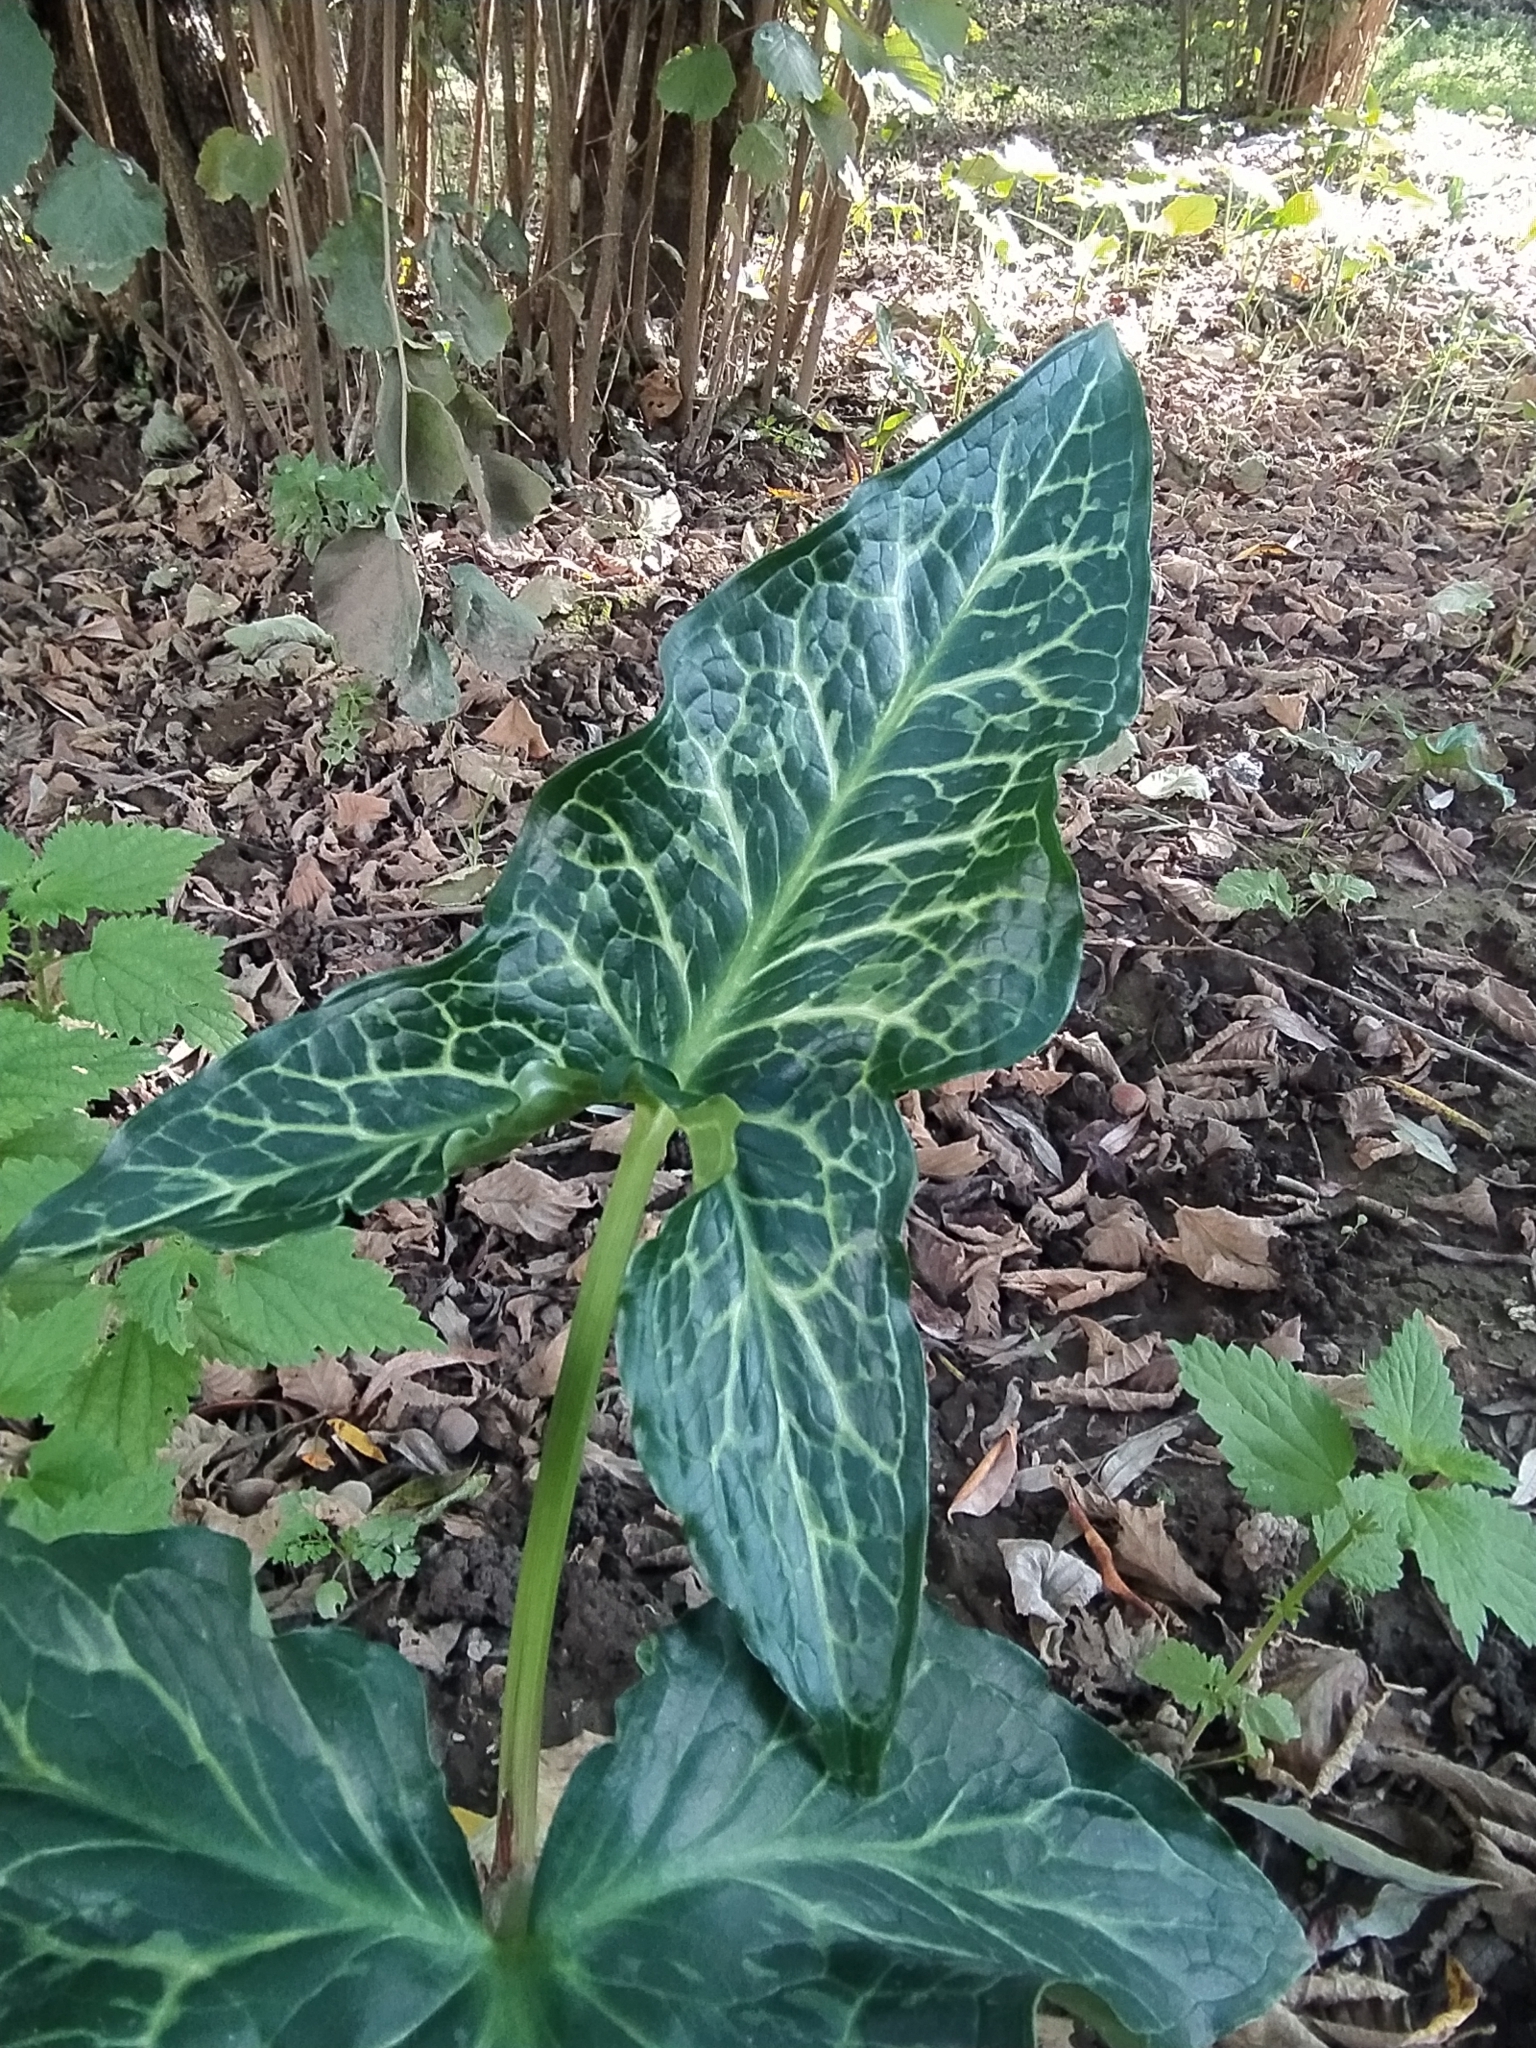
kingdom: Plantae
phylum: Tracheophyta
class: Liliopsida
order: Alismatales
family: Araceae
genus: Arum
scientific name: Arum italicum
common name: Italian lords-and-ladies
